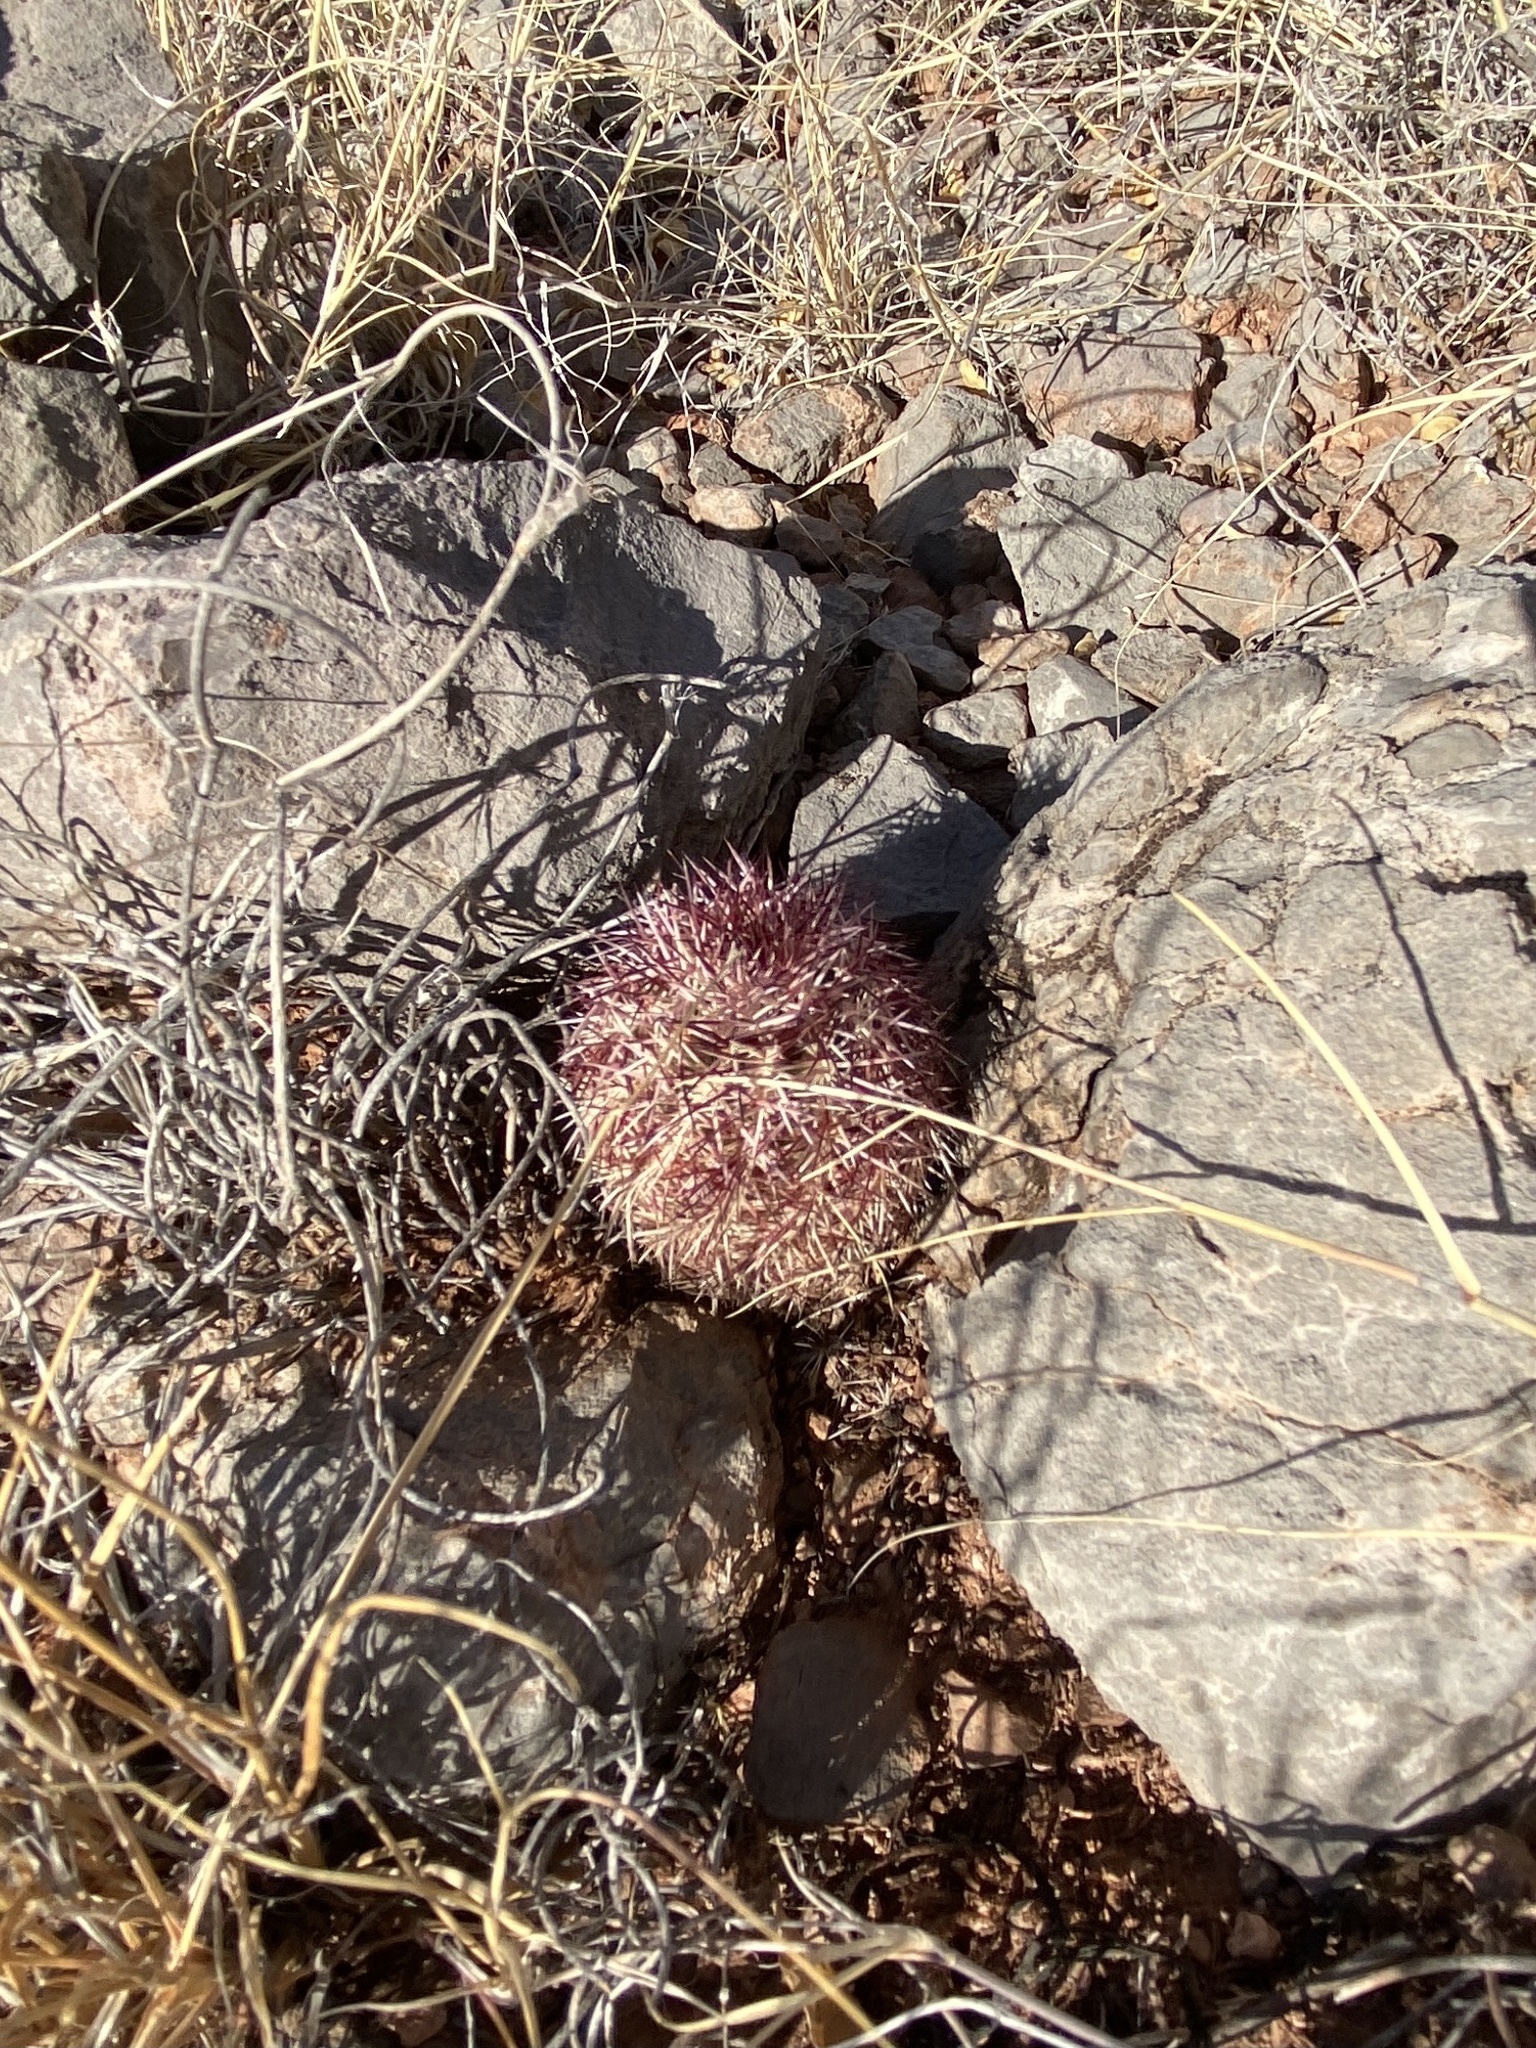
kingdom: Plantae
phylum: Tracheophyta
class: Magnoliopsida
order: Caryophyllales
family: Cactaceae
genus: Echinocereus
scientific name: Echinocereus viridiflorus
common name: Nylon hedgehog cactus
